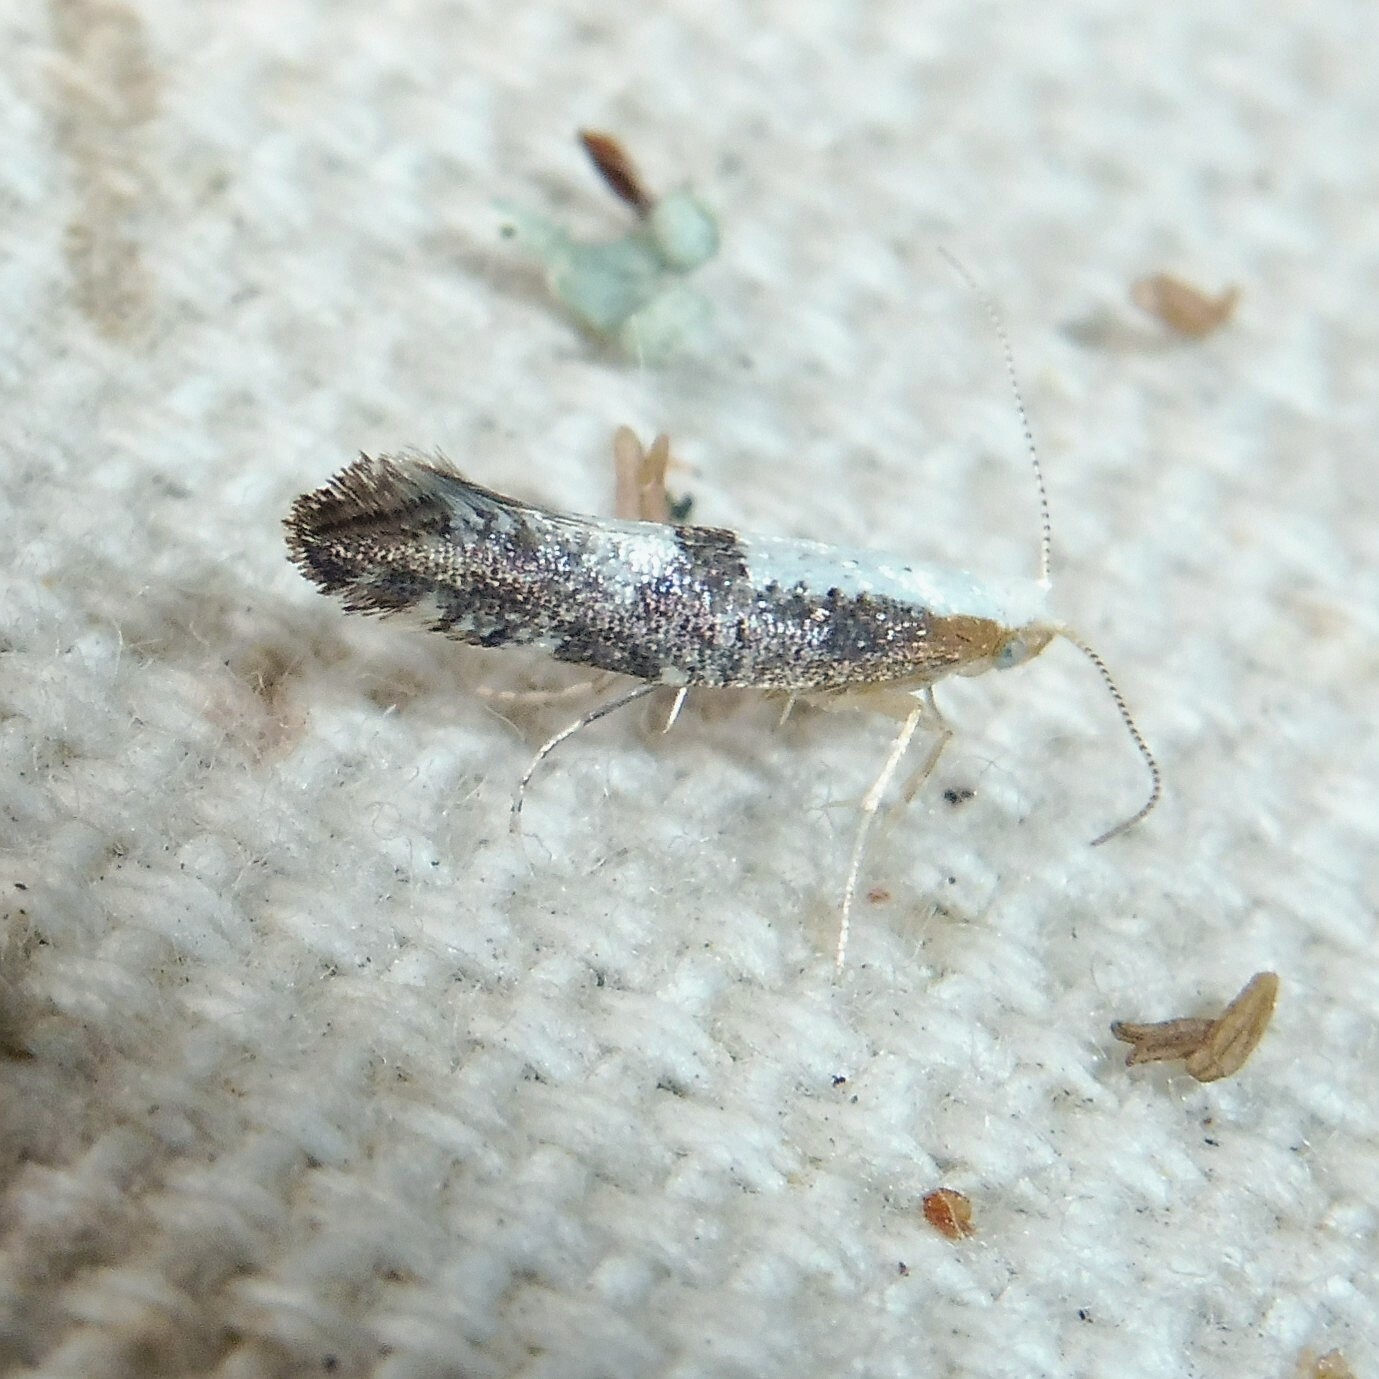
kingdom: Animalia
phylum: Arthropoda
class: Insecta
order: Lepidoptera
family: Argyresthiidae
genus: Argyresthia
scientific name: Argyresthia spinosella
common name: Blackthorn argent
